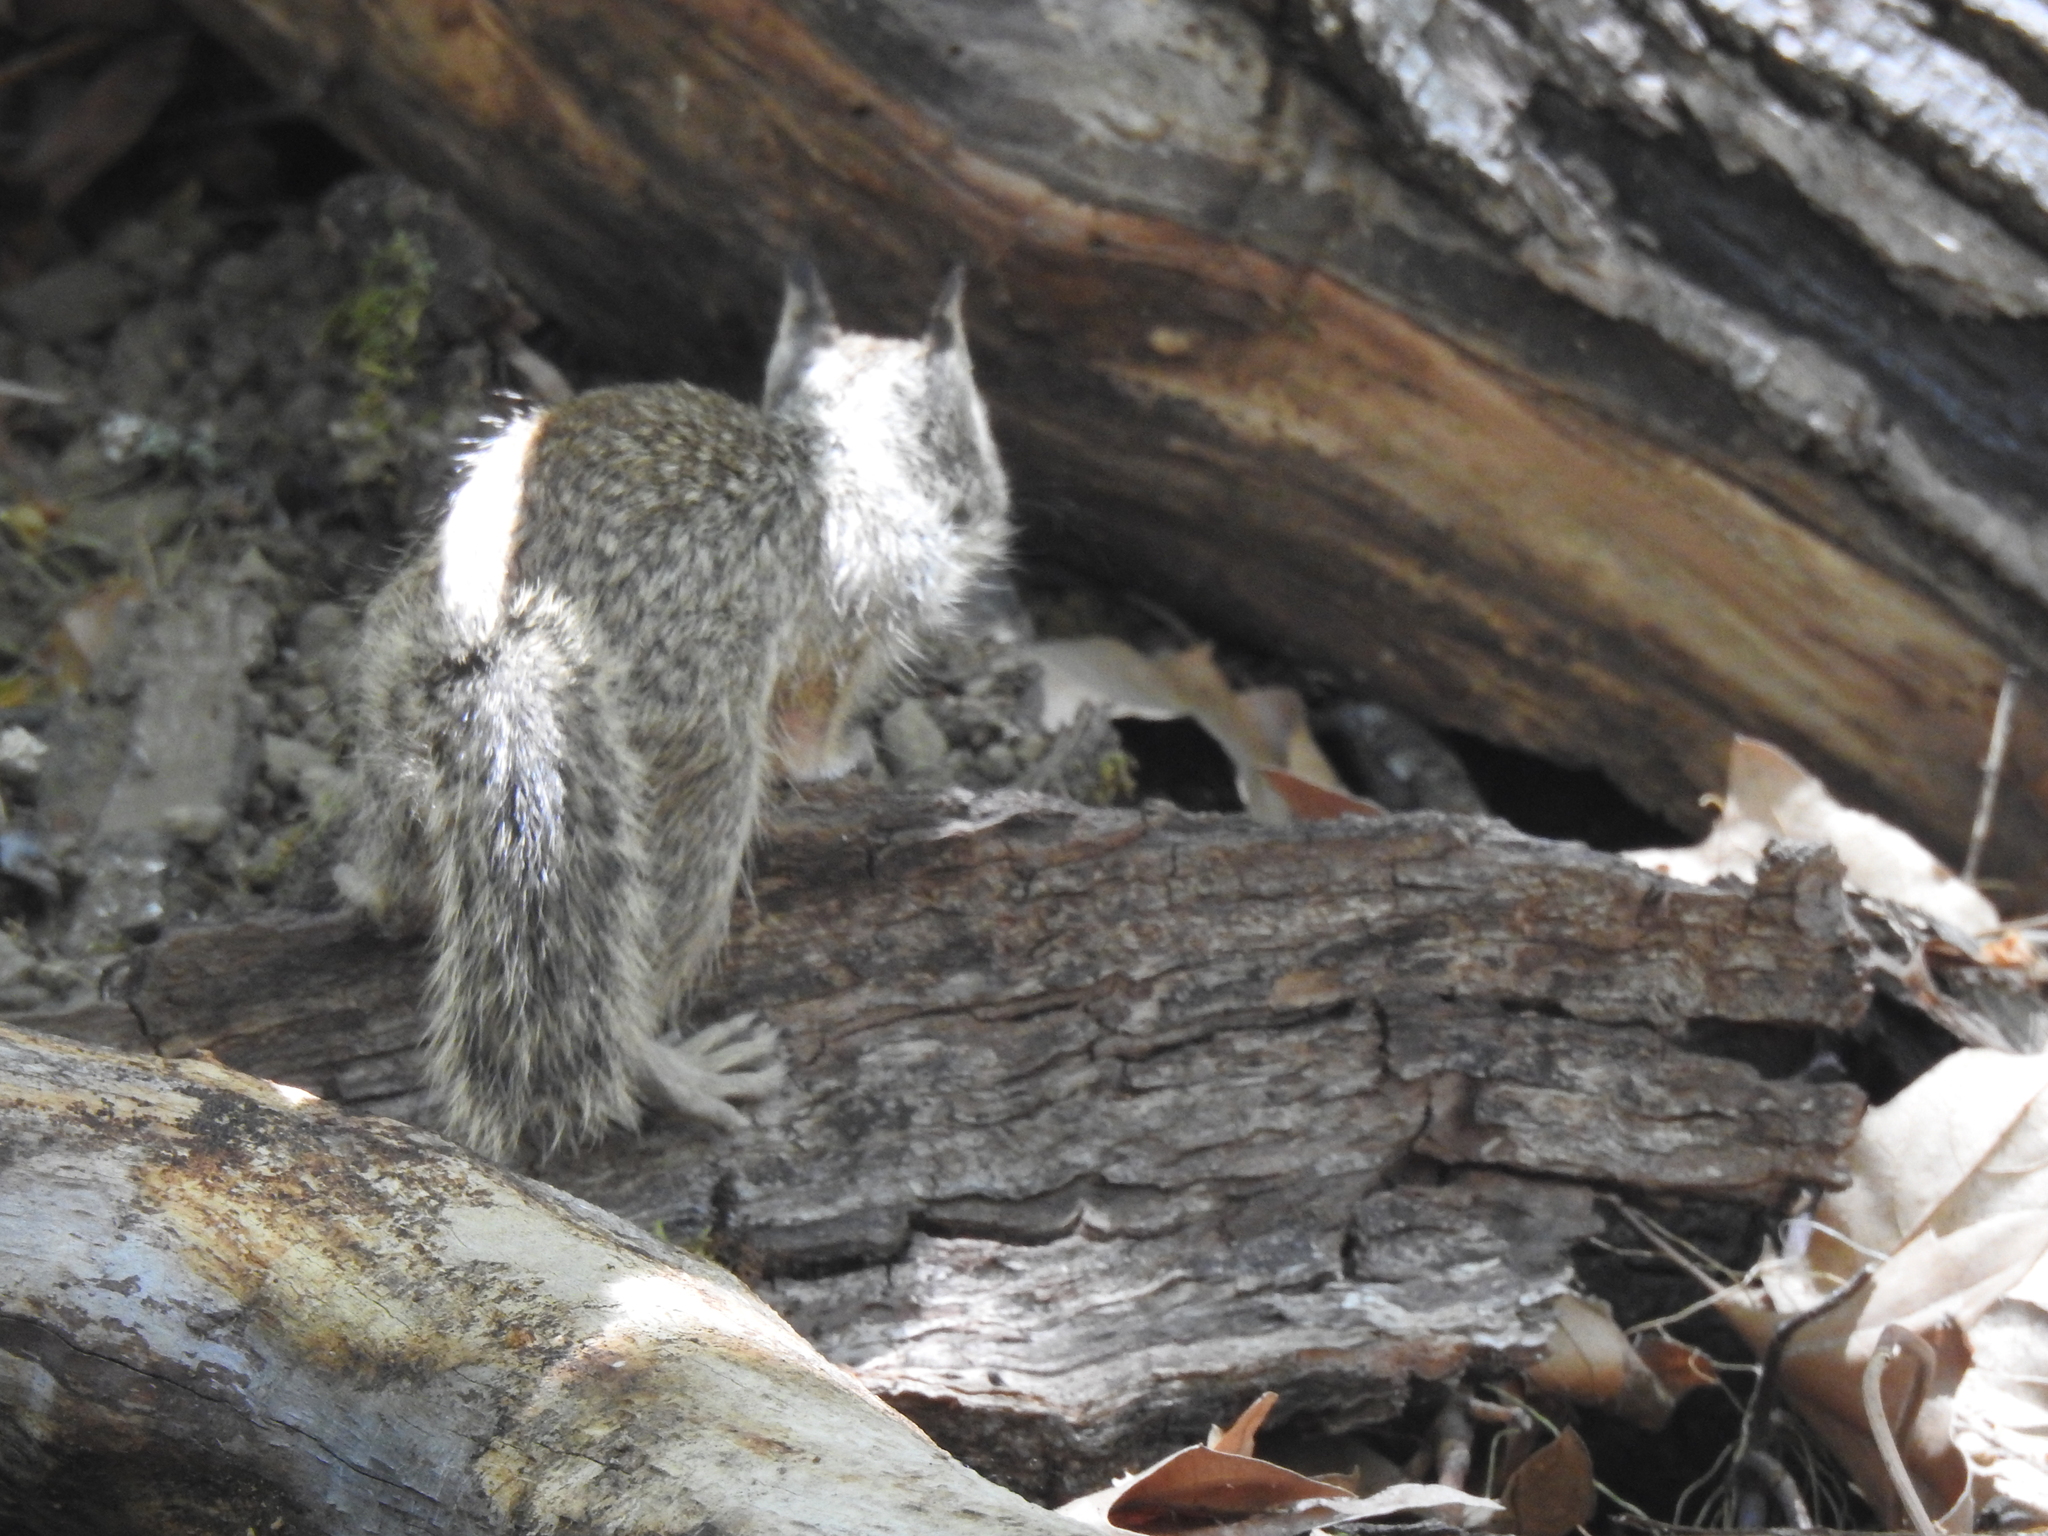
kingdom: Animalia
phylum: Chordata
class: Mammalia
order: Rodentia
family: Sciuridae
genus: Otospermophilus
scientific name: Otospermophilus beecheyi
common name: California ground squirrel
